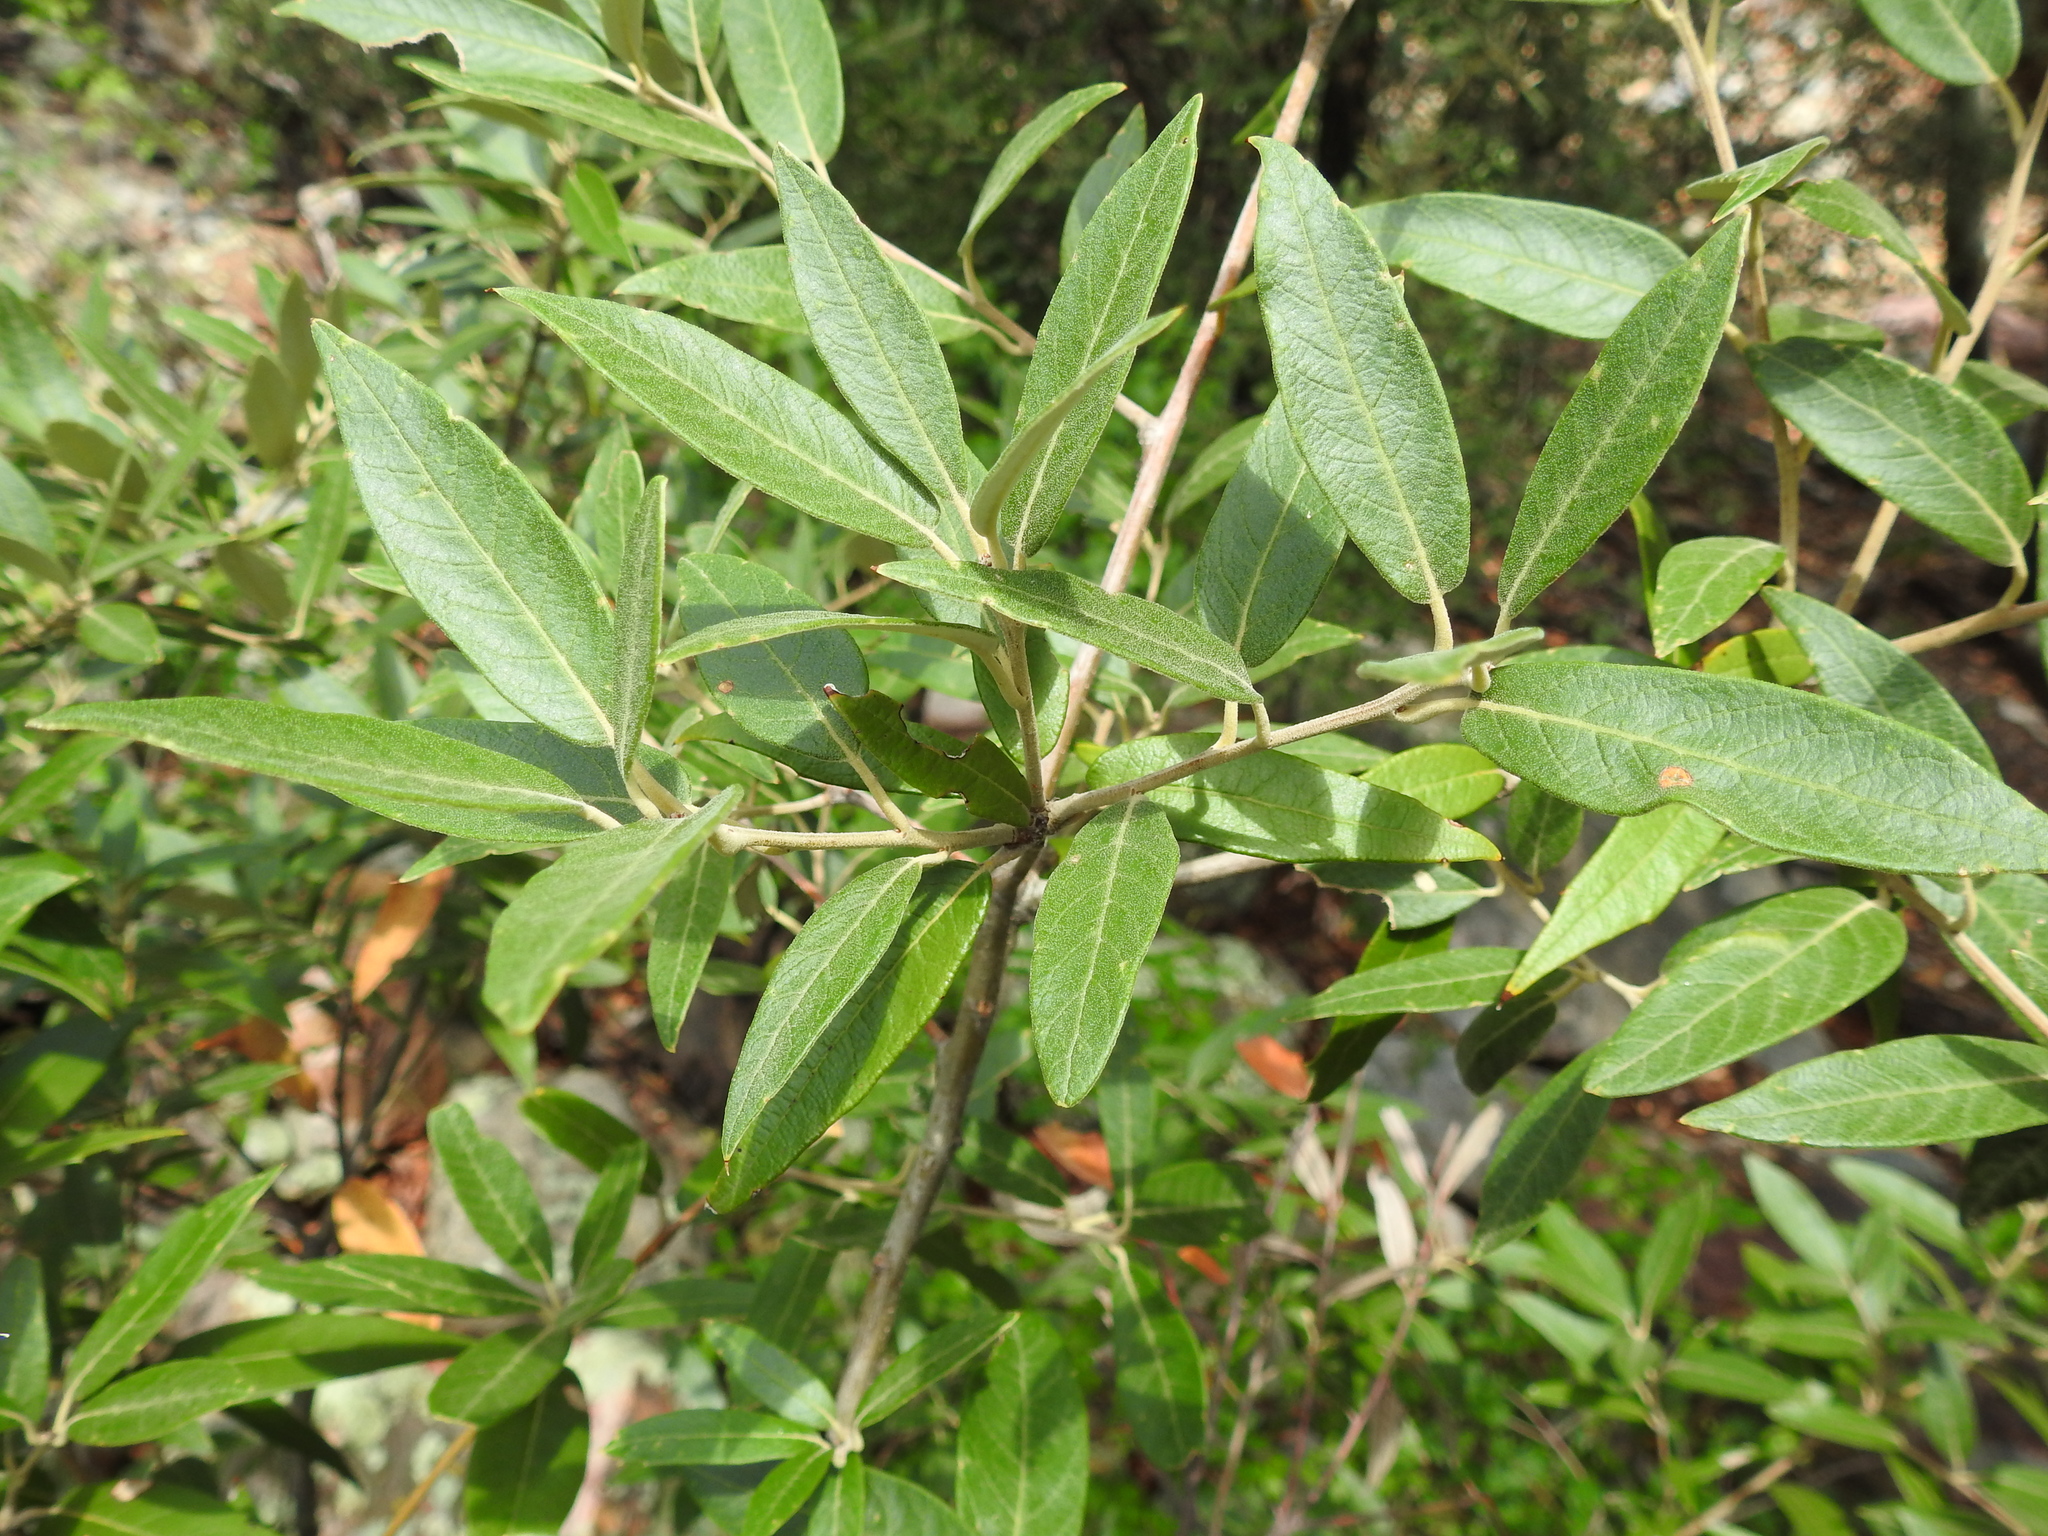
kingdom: Plantae
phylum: Tracheophyta
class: Magnoliopsida
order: Fagales
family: Fagaceae
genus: Quercus
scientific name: Quercus hypoleucoides
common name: Silverleaf oak
